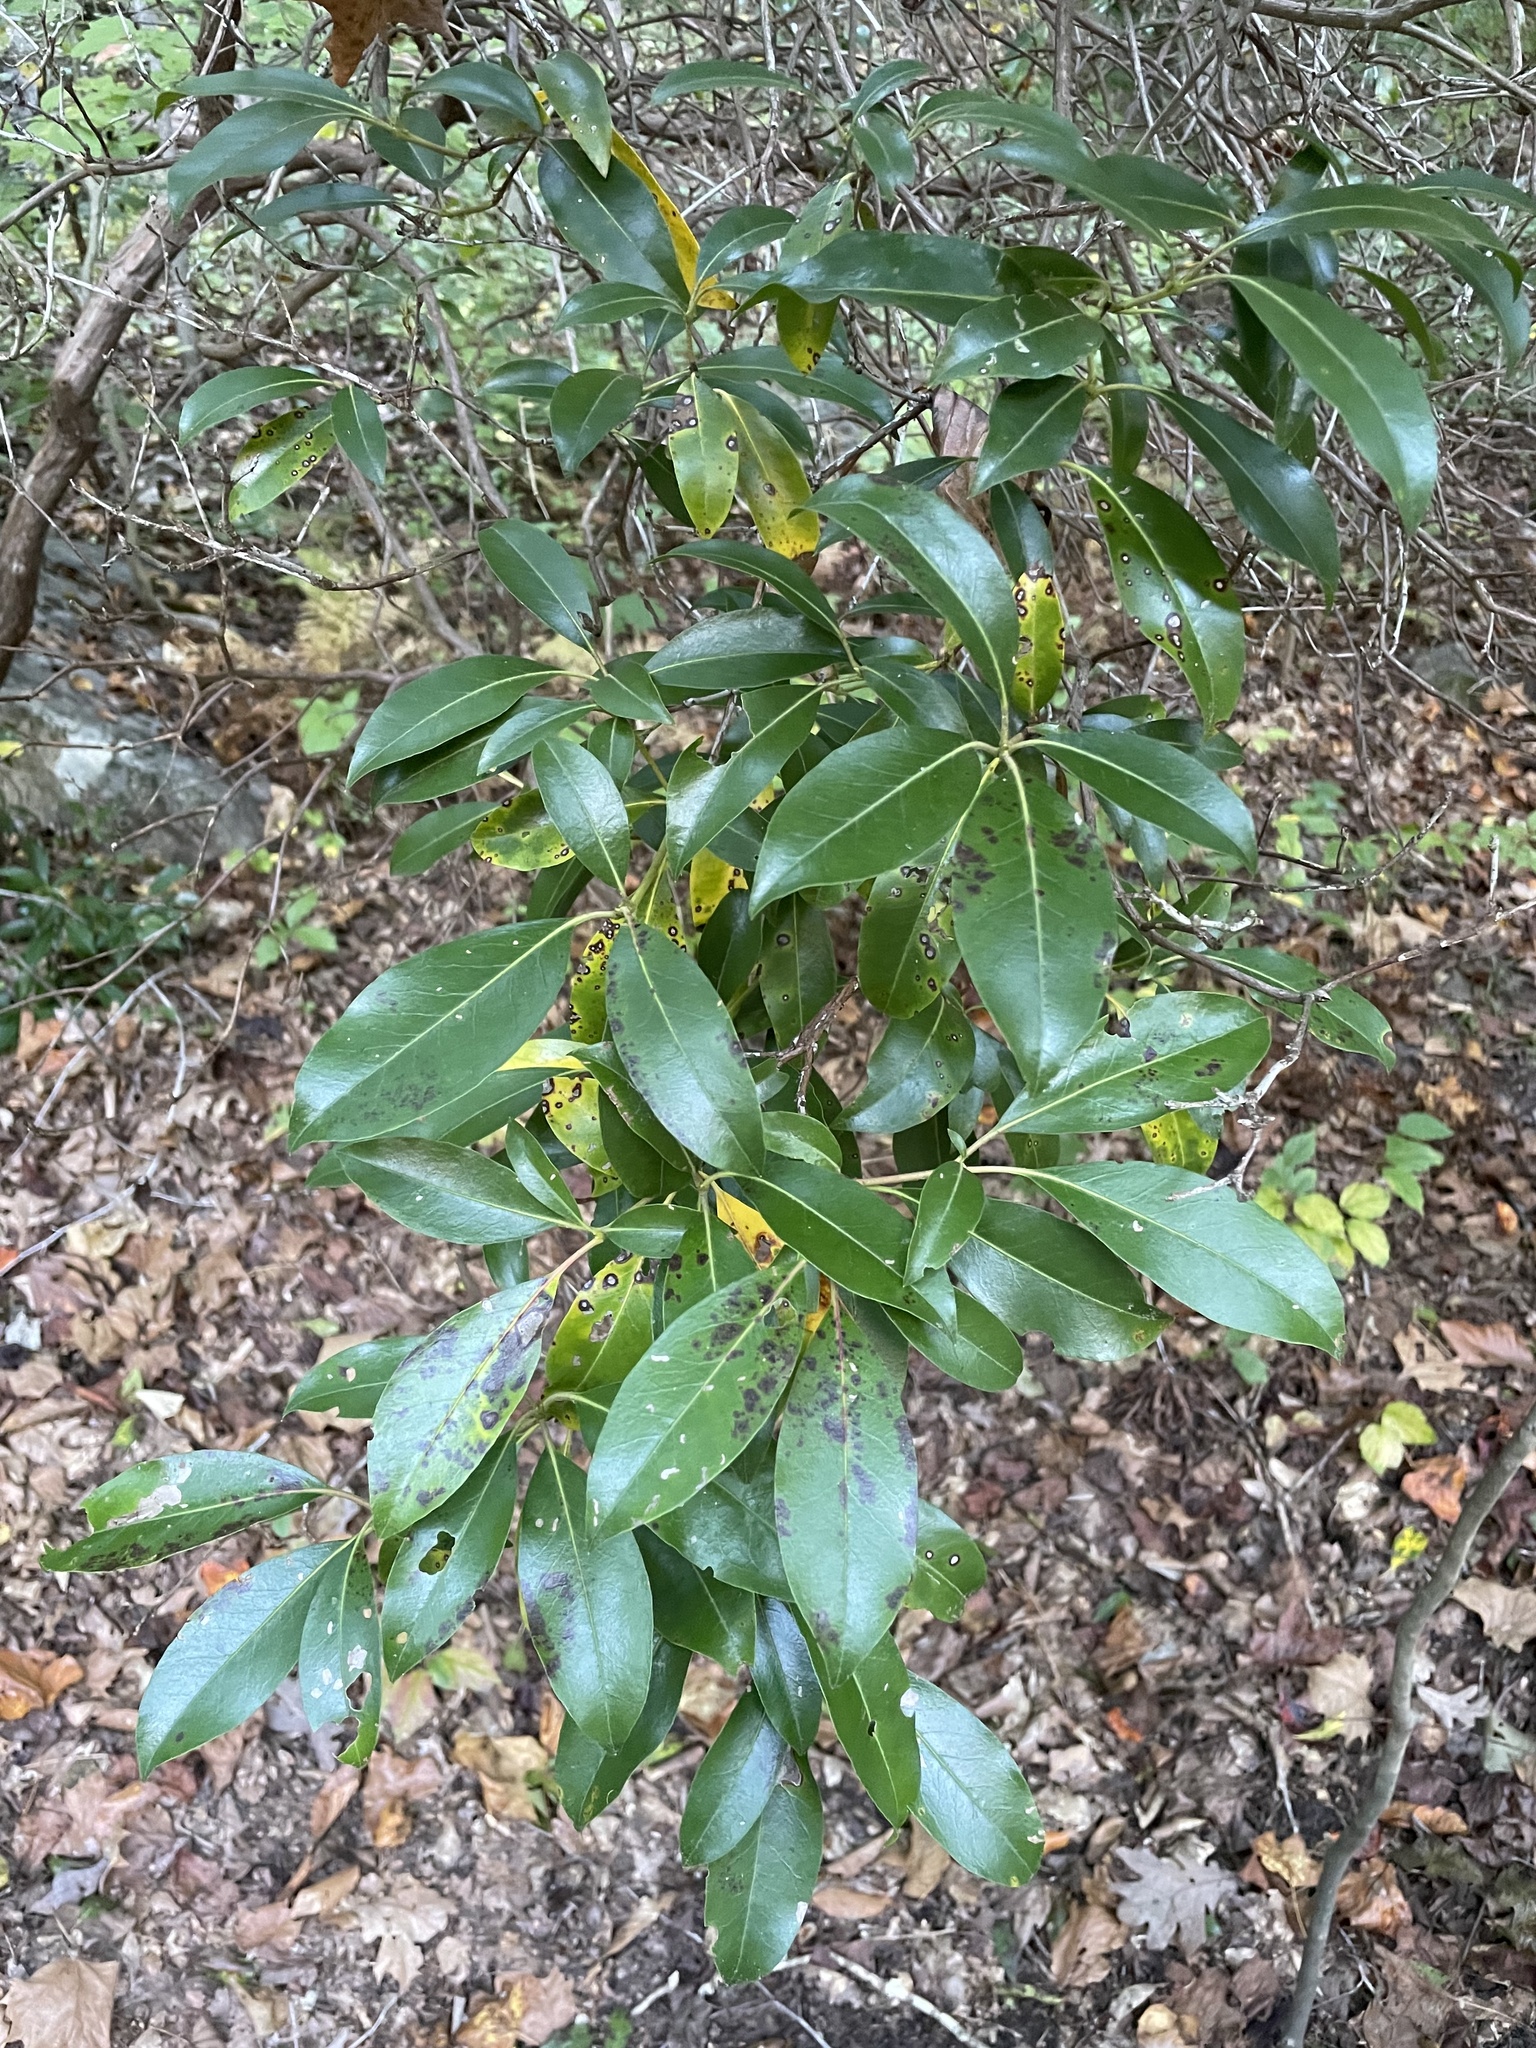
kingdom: Plantae
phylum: Tracheophyta
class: Magnoliopsida
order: Ericales
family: Ericaceae
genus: Kalmia
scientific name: Kalmia latifolia
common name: Mountain-laurel
